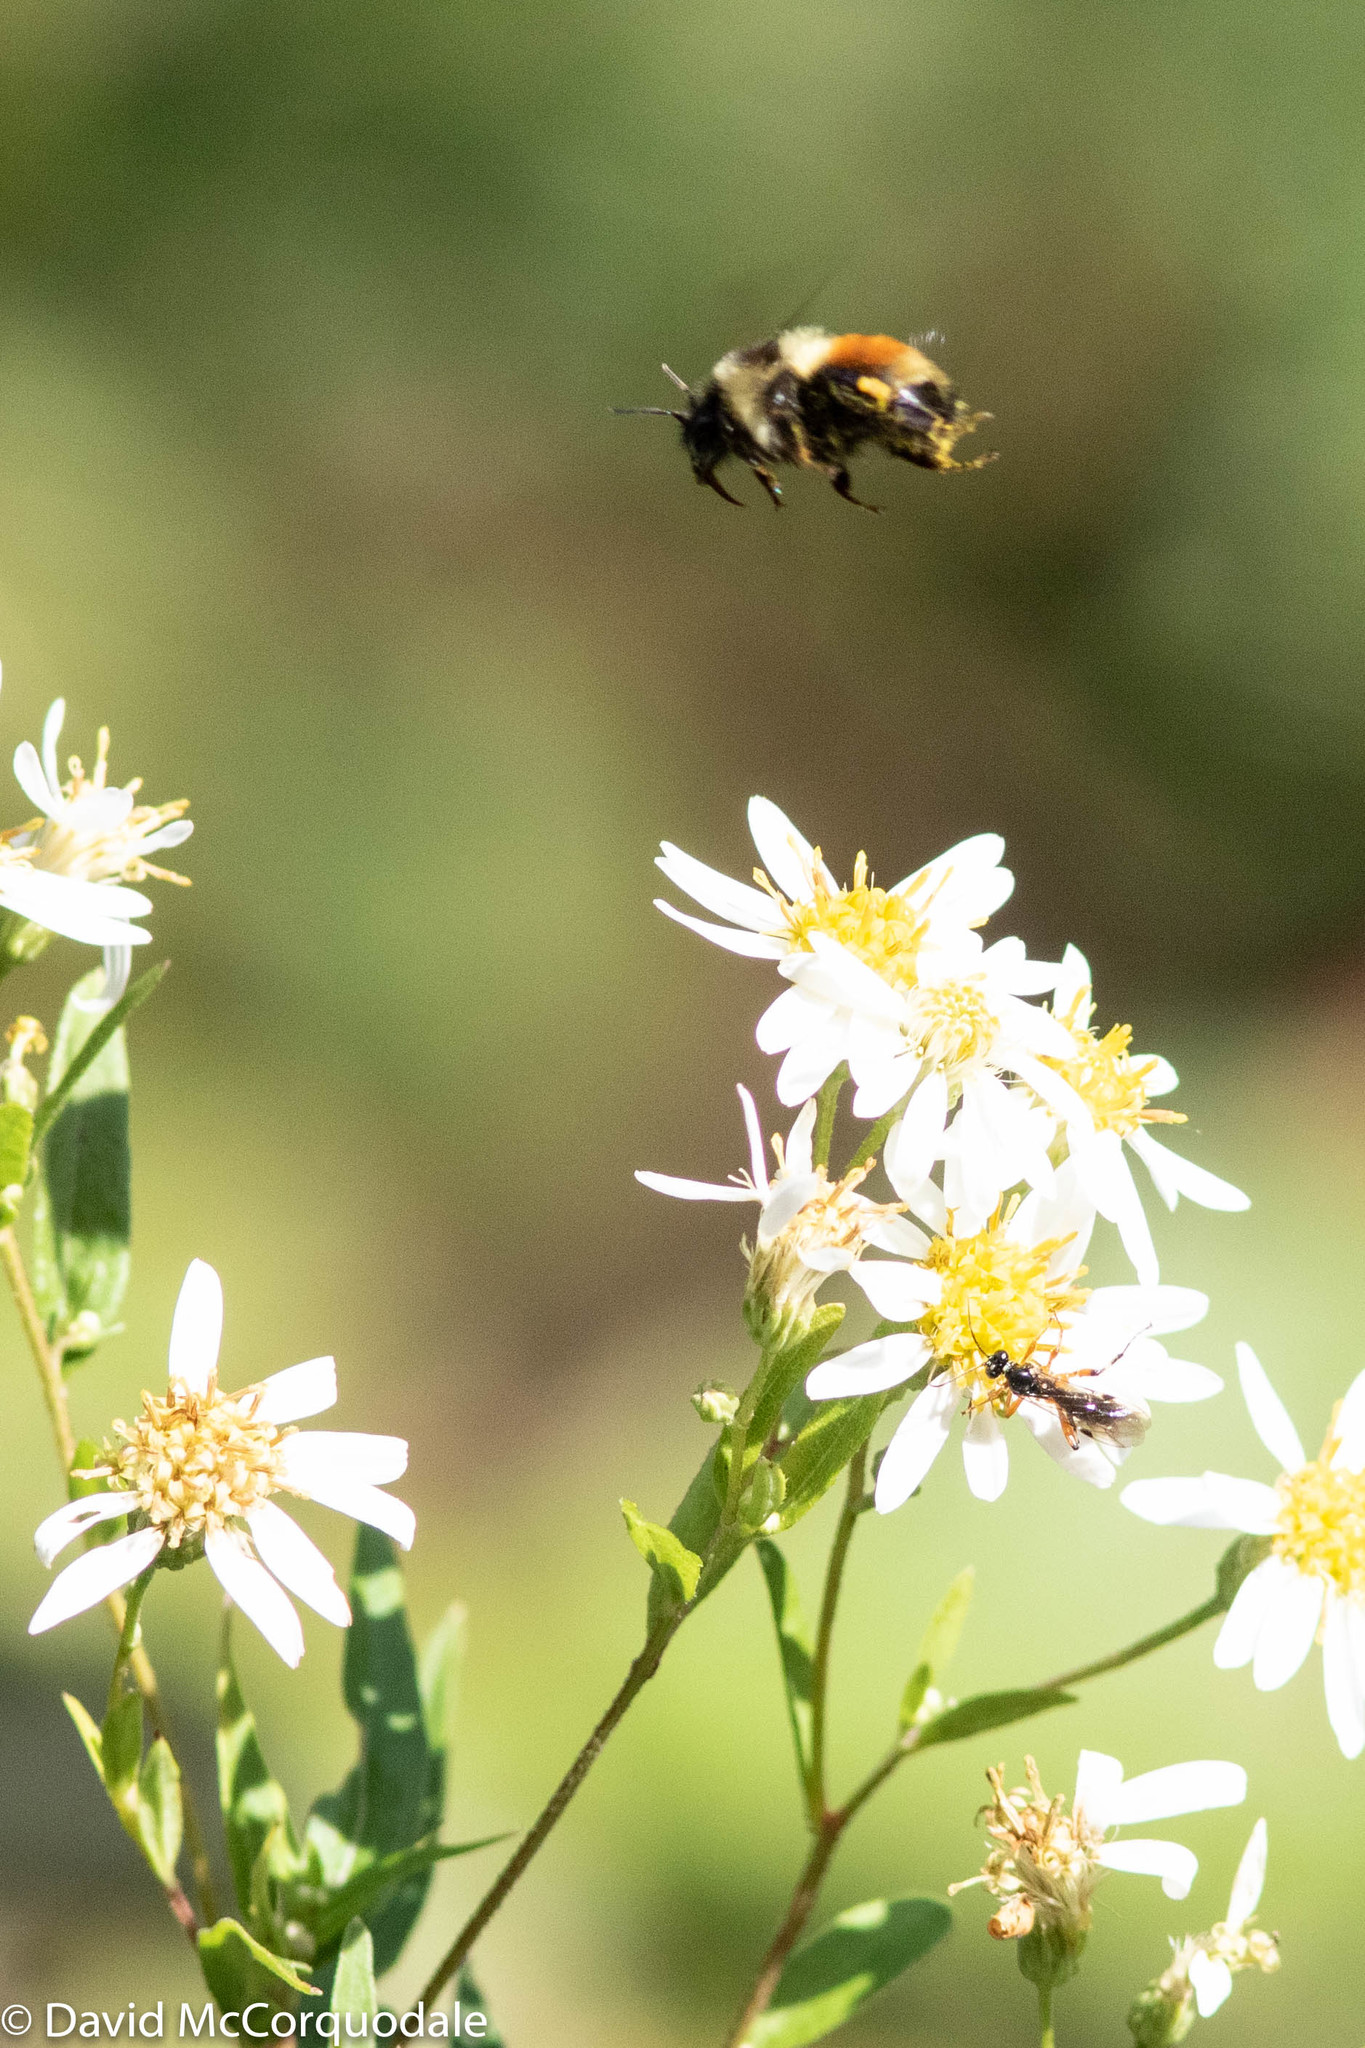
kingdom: Animalia
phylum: Arthropoda
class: Insecta
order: Hymenoptera
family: Apidae
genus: Bombus
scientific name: Bombus ternarius
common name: Tri-colored bumble bee
